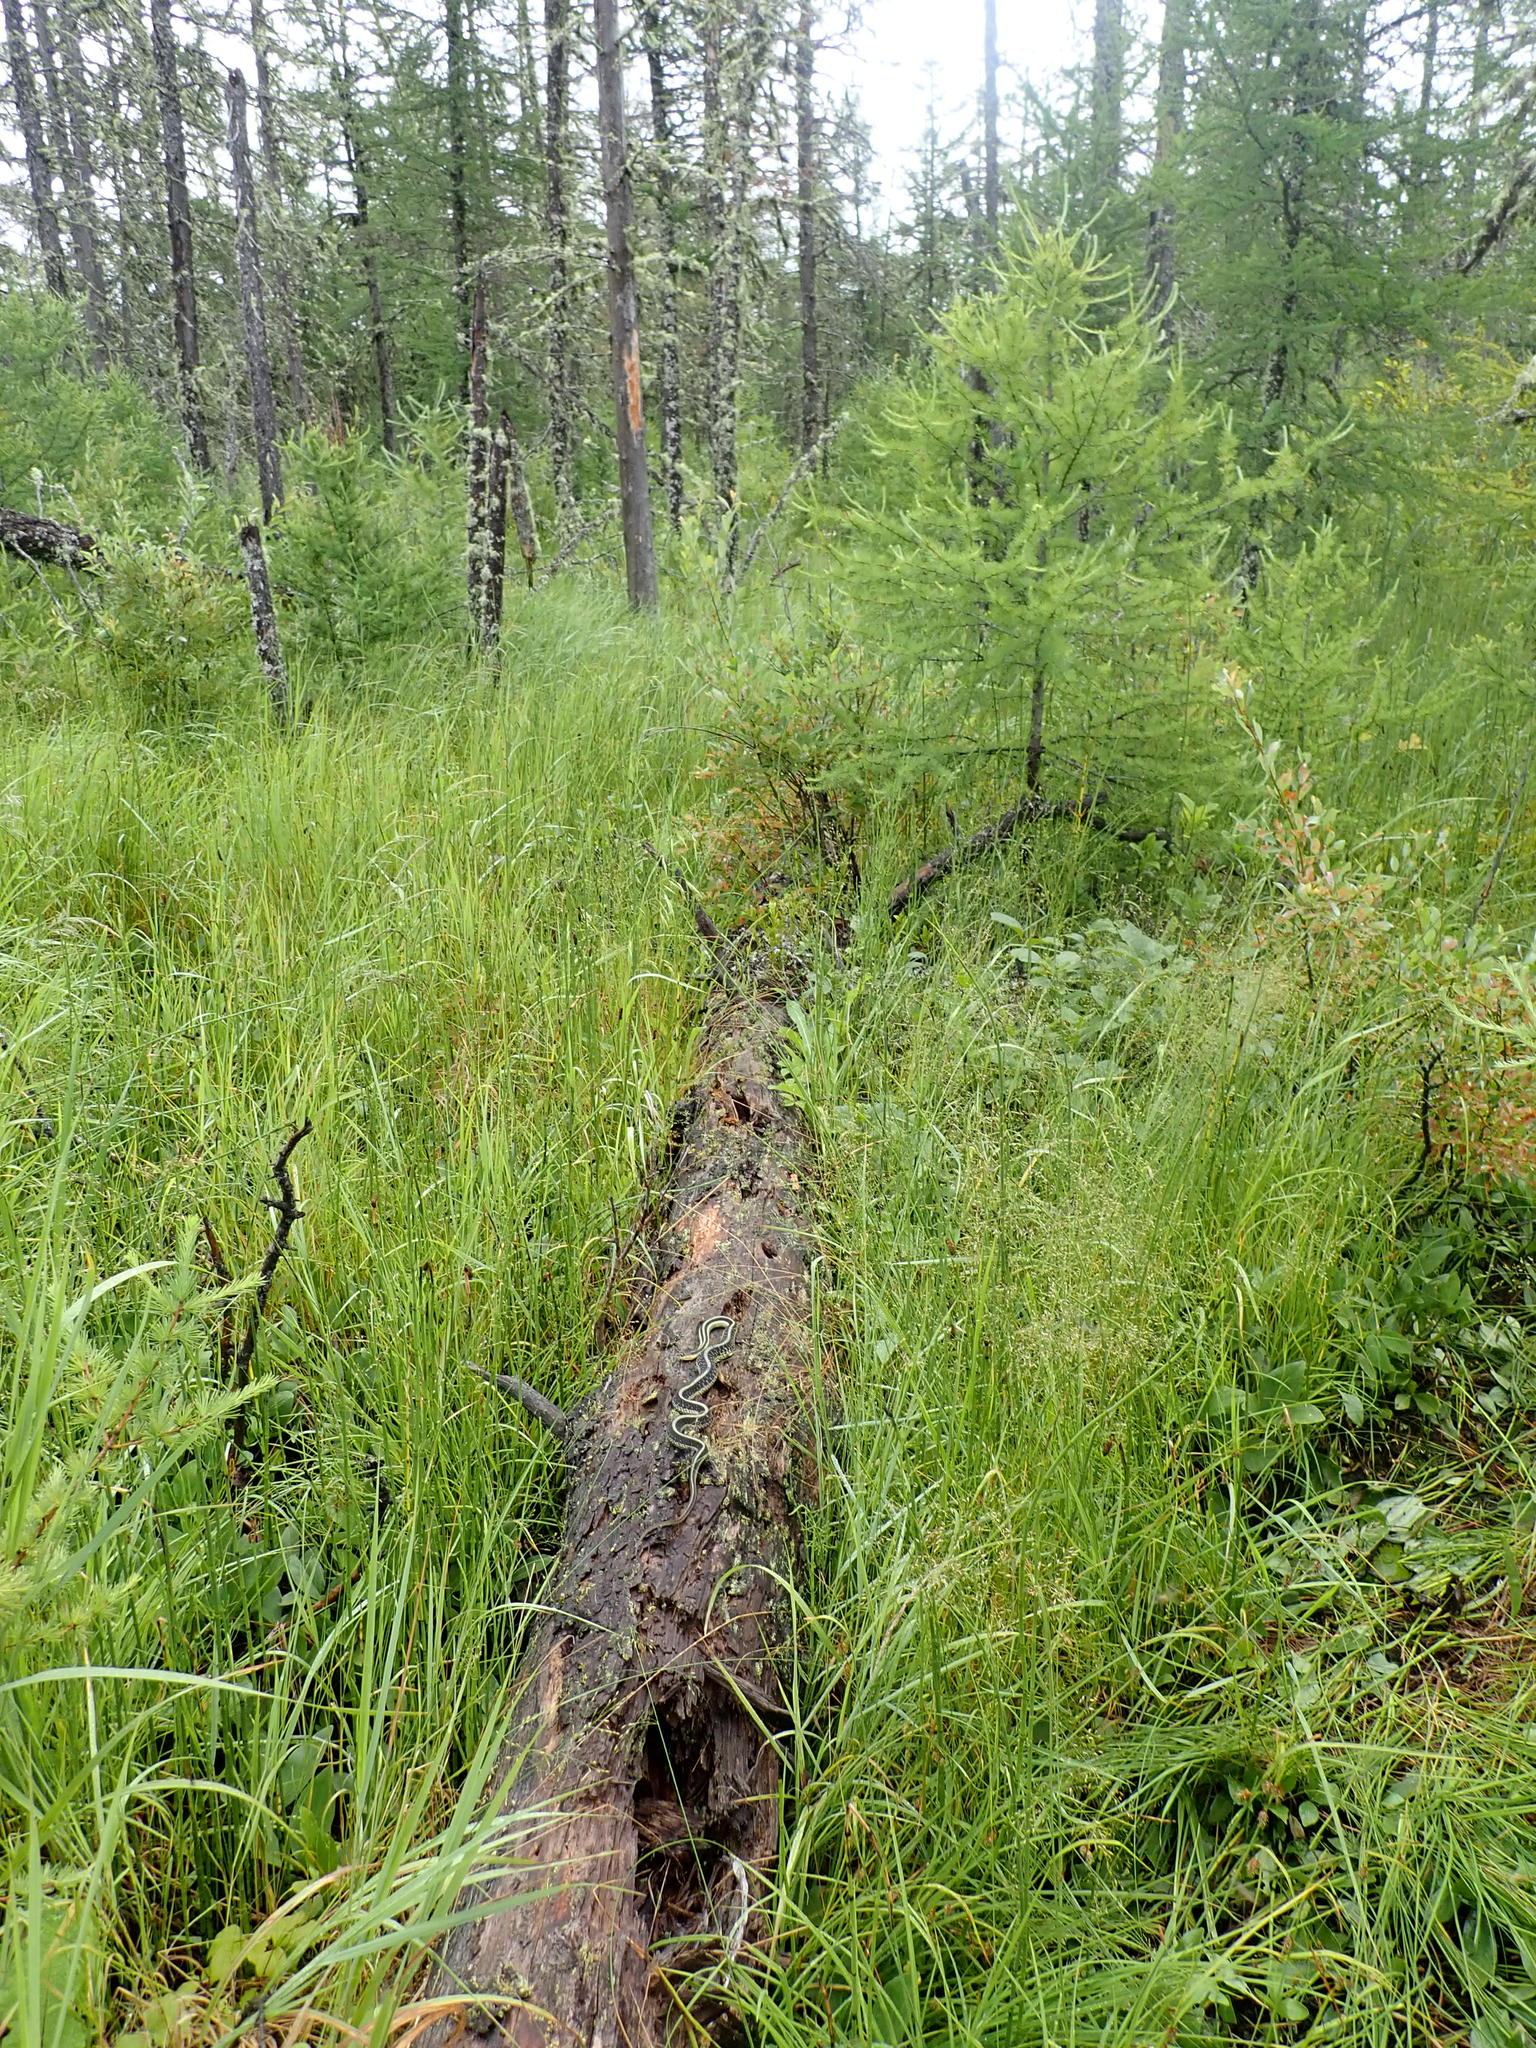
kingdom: Animalia
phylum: Chordata
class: Squamata
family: Colubridae
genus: Thamnophis
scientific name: Thamnophis sirtalis
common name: Common garter snake
